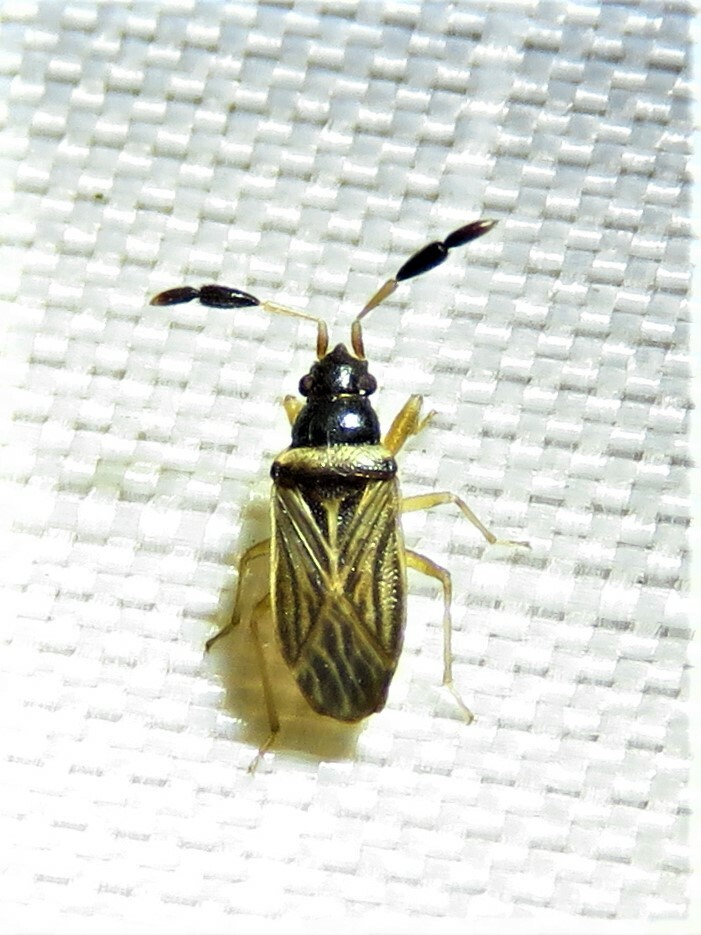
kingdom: Animalia
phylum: Arthropoda
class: Insecta
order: Hemiptera
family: Rhyparochromidae
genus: Ptochiomera
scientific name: Ptochiomera nodosa
